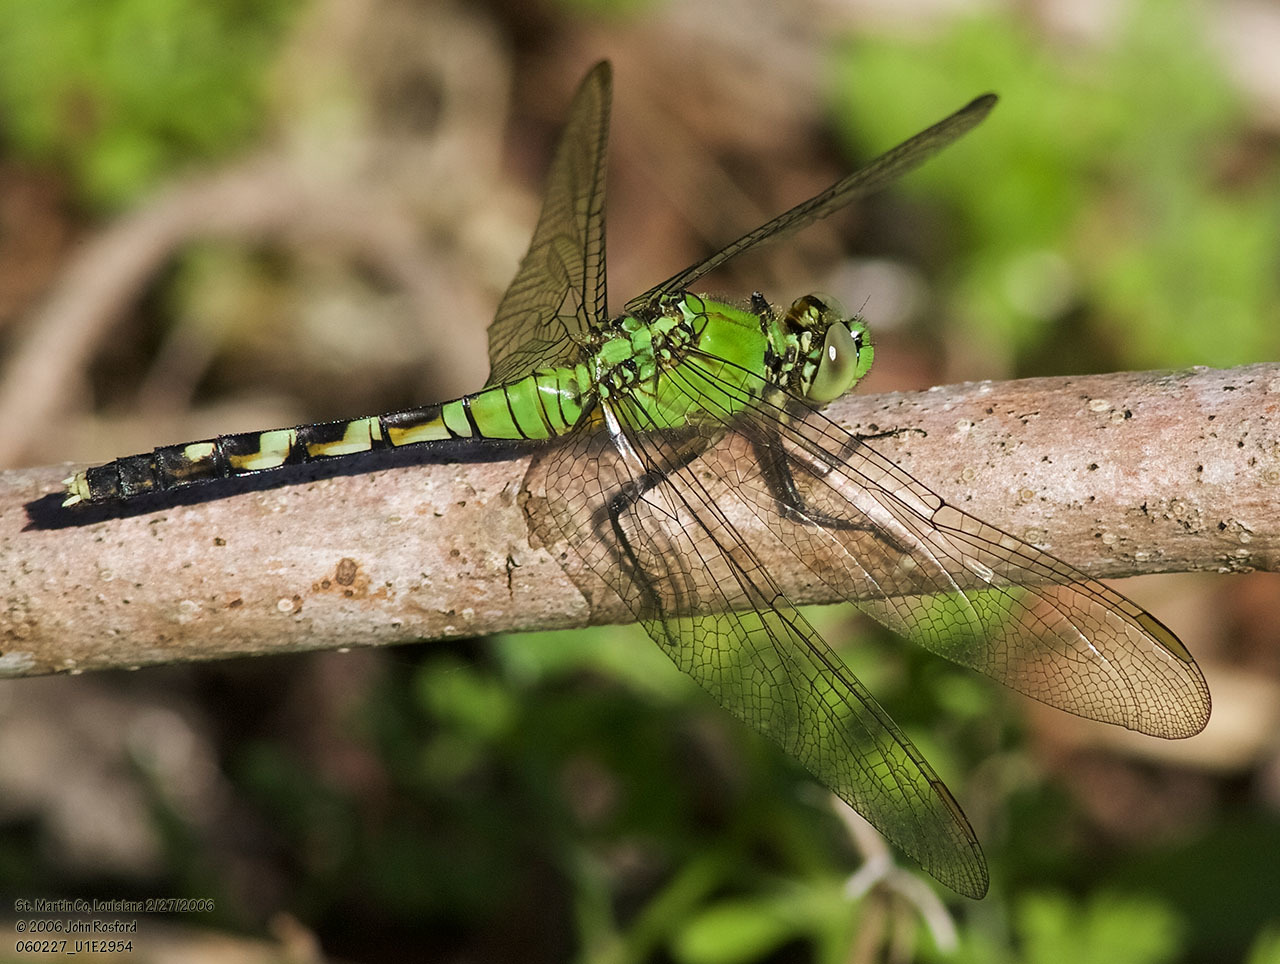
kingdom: Animalia
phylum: Arthropoda
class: Insecta
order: Odonata
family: Libellulidae
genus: Erythemis
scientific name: Erythemis simplicicollis
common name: Eastern pondhawk
